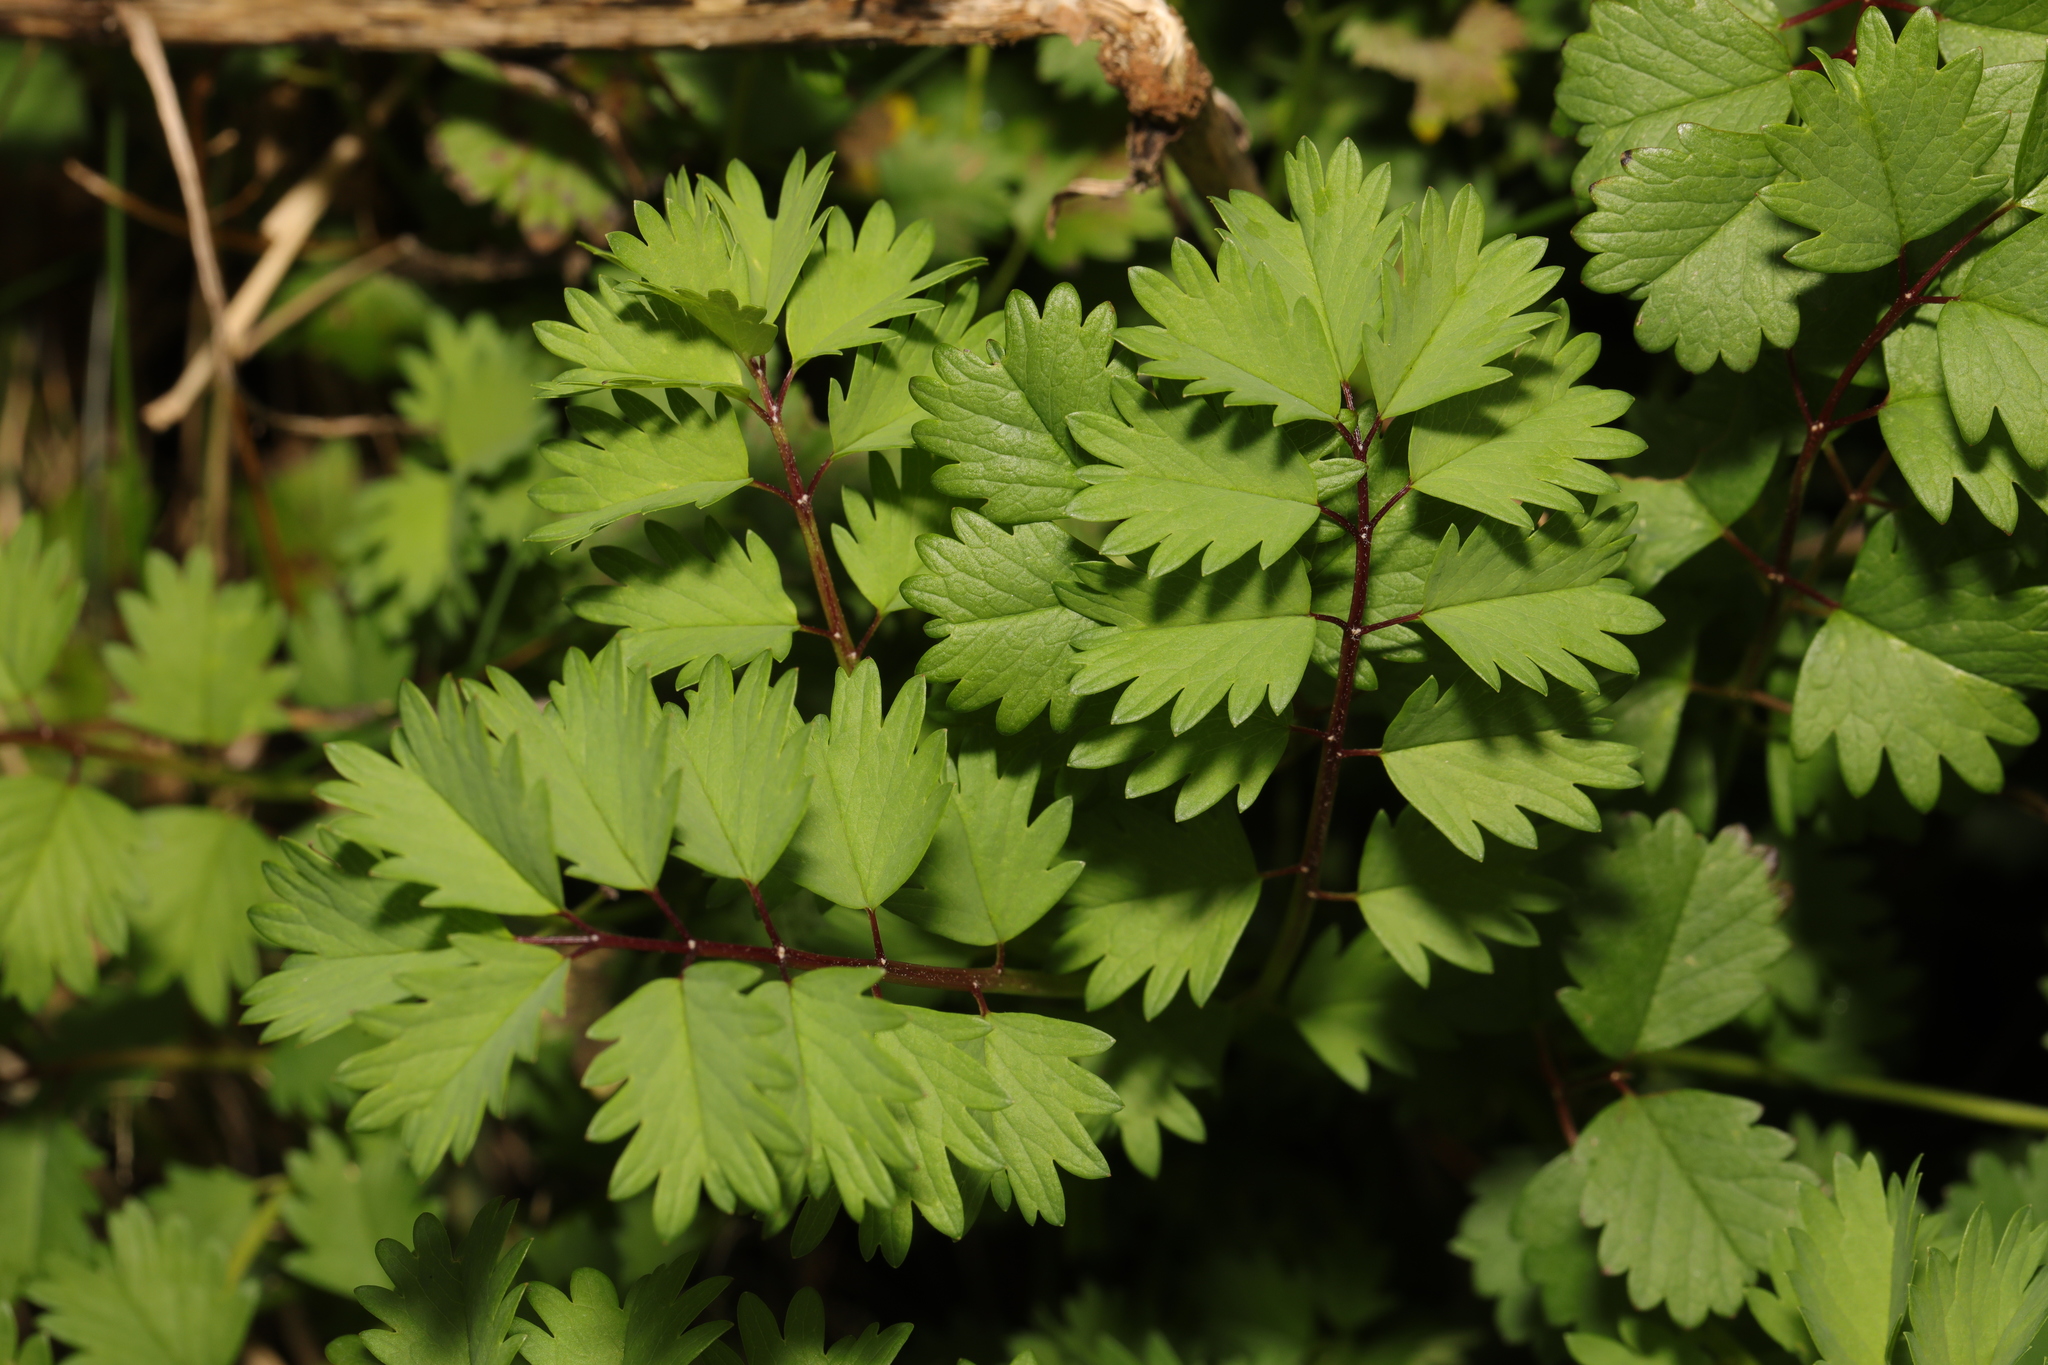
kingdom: Plantae
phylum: Tracheophyta
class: Magnoliopsida
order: Rosales
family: Rosaceae
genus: Poterium
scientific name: Poterium sanguisorba
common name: Salad burnet
